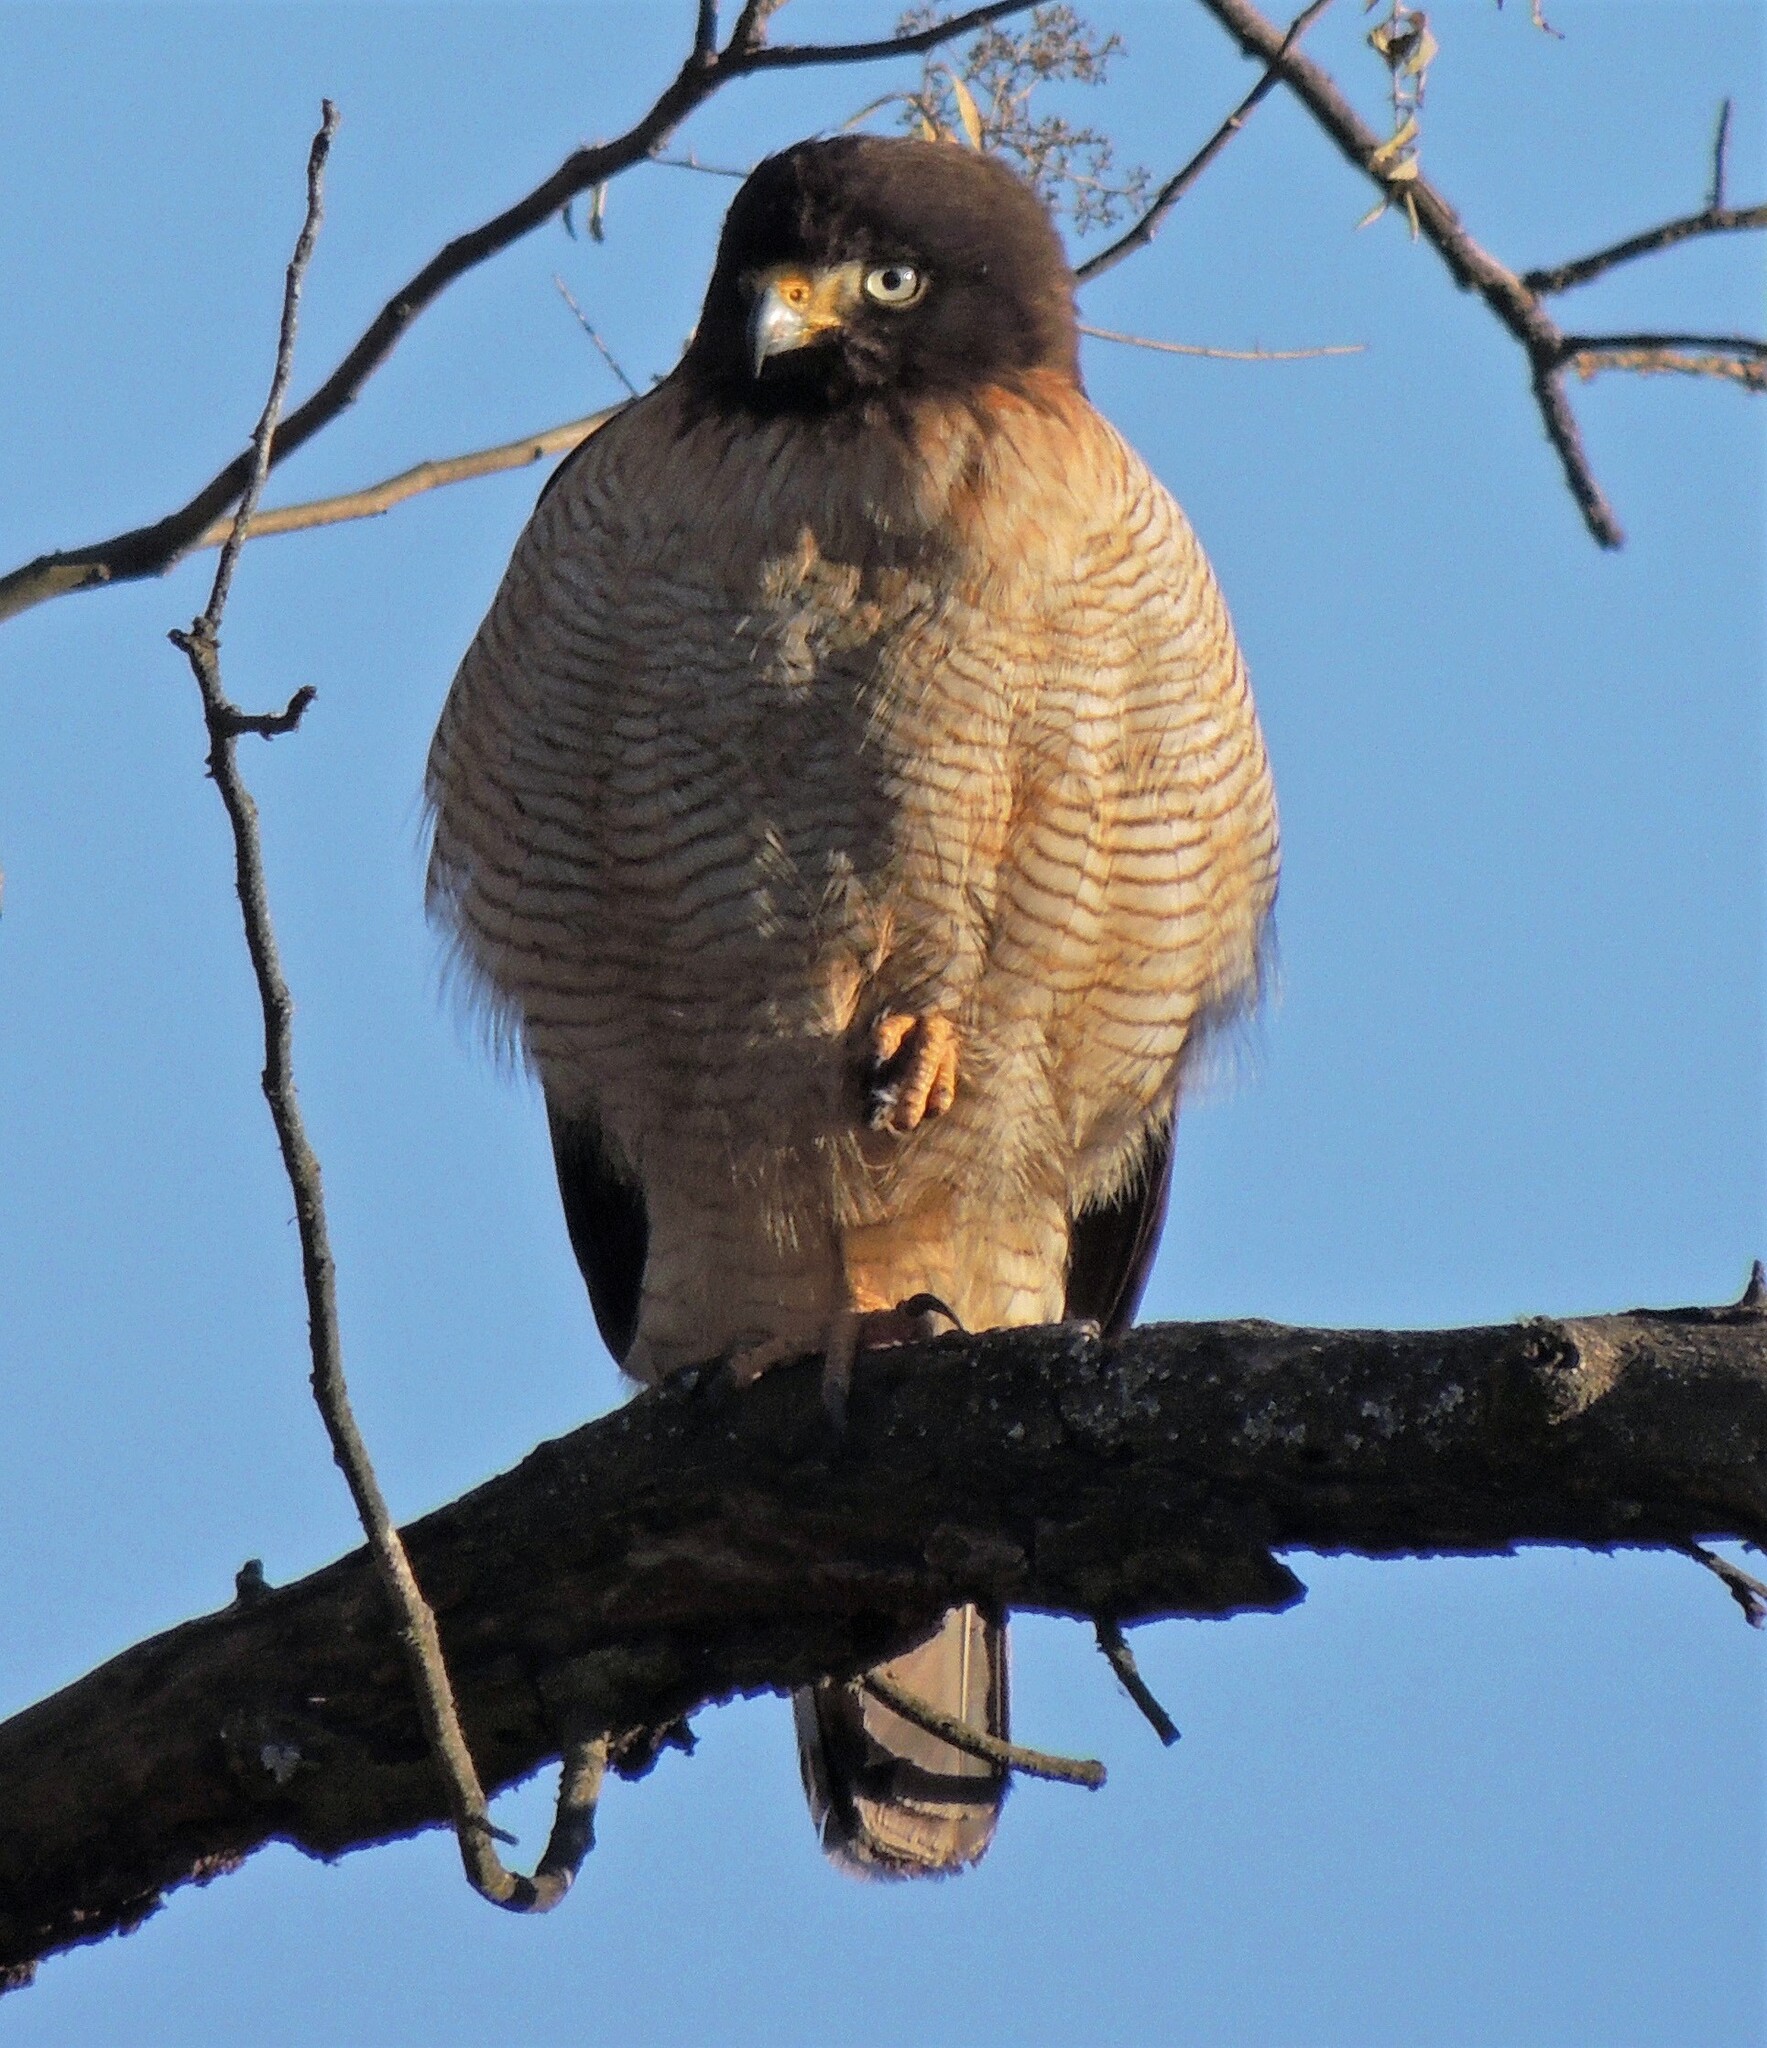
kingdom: Animalia
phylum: Chordata
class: Aves
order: Accipitriformes
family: Accipitridae
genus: Rupornis
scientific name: Rupornis magnirostris
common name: Roadside hawk
